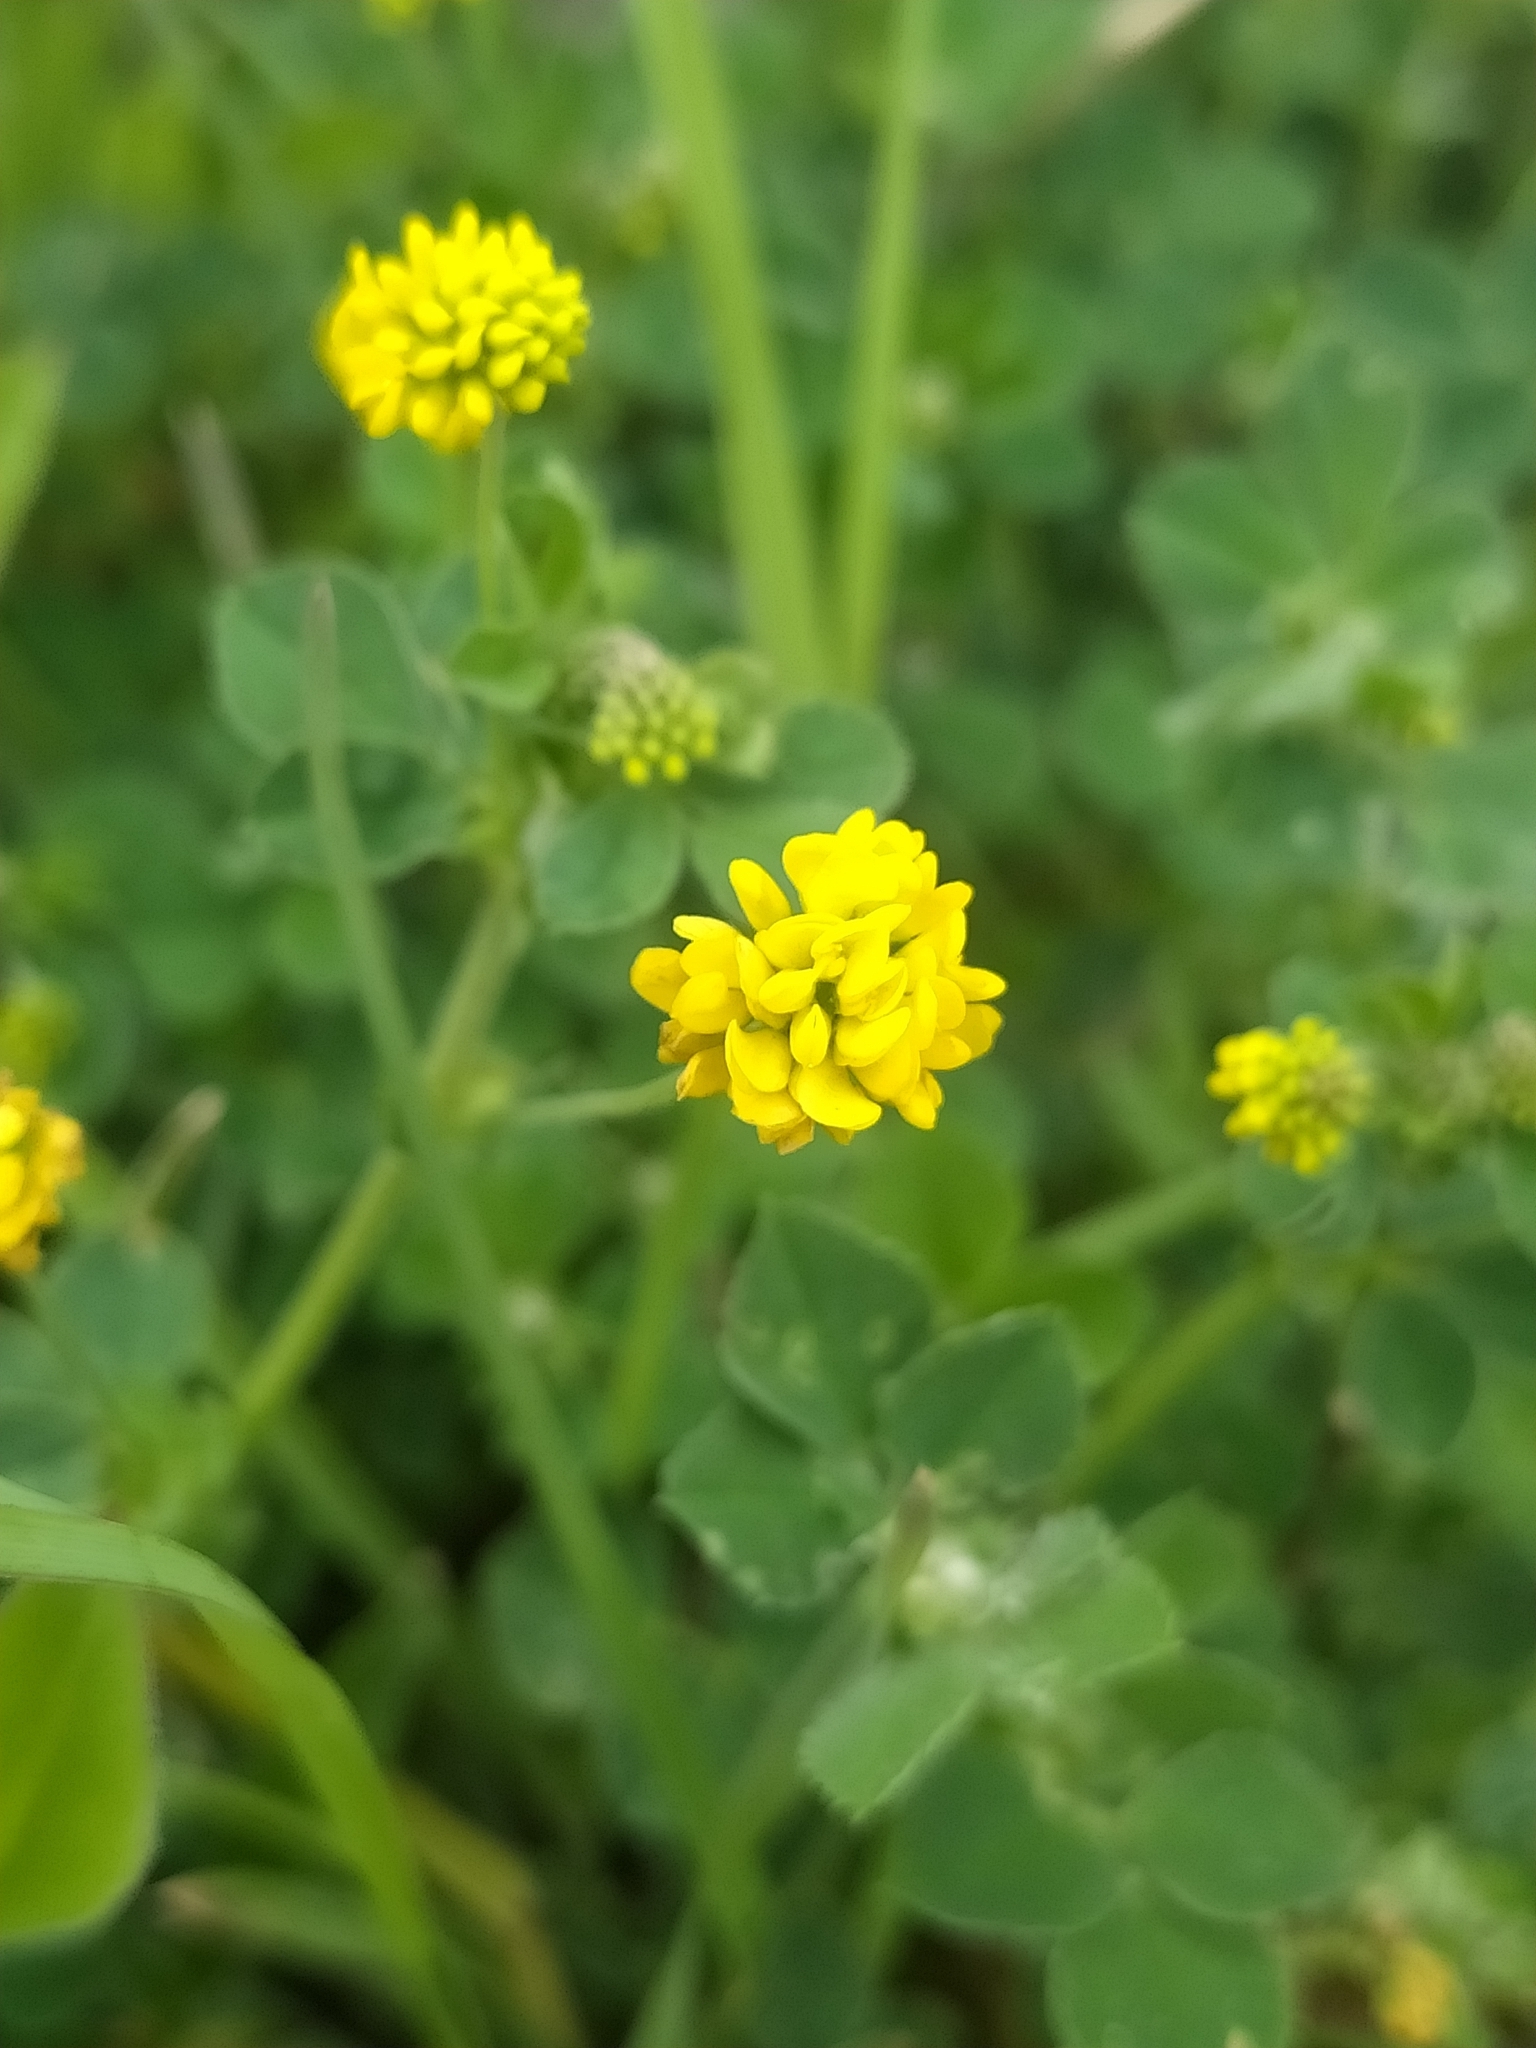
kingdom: Plantae
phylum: Tracheophyta
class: Magnoliopsida
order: Fabales
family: Fabaceae
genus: Medicago
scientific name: Medicago lupulina
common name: Black medick
